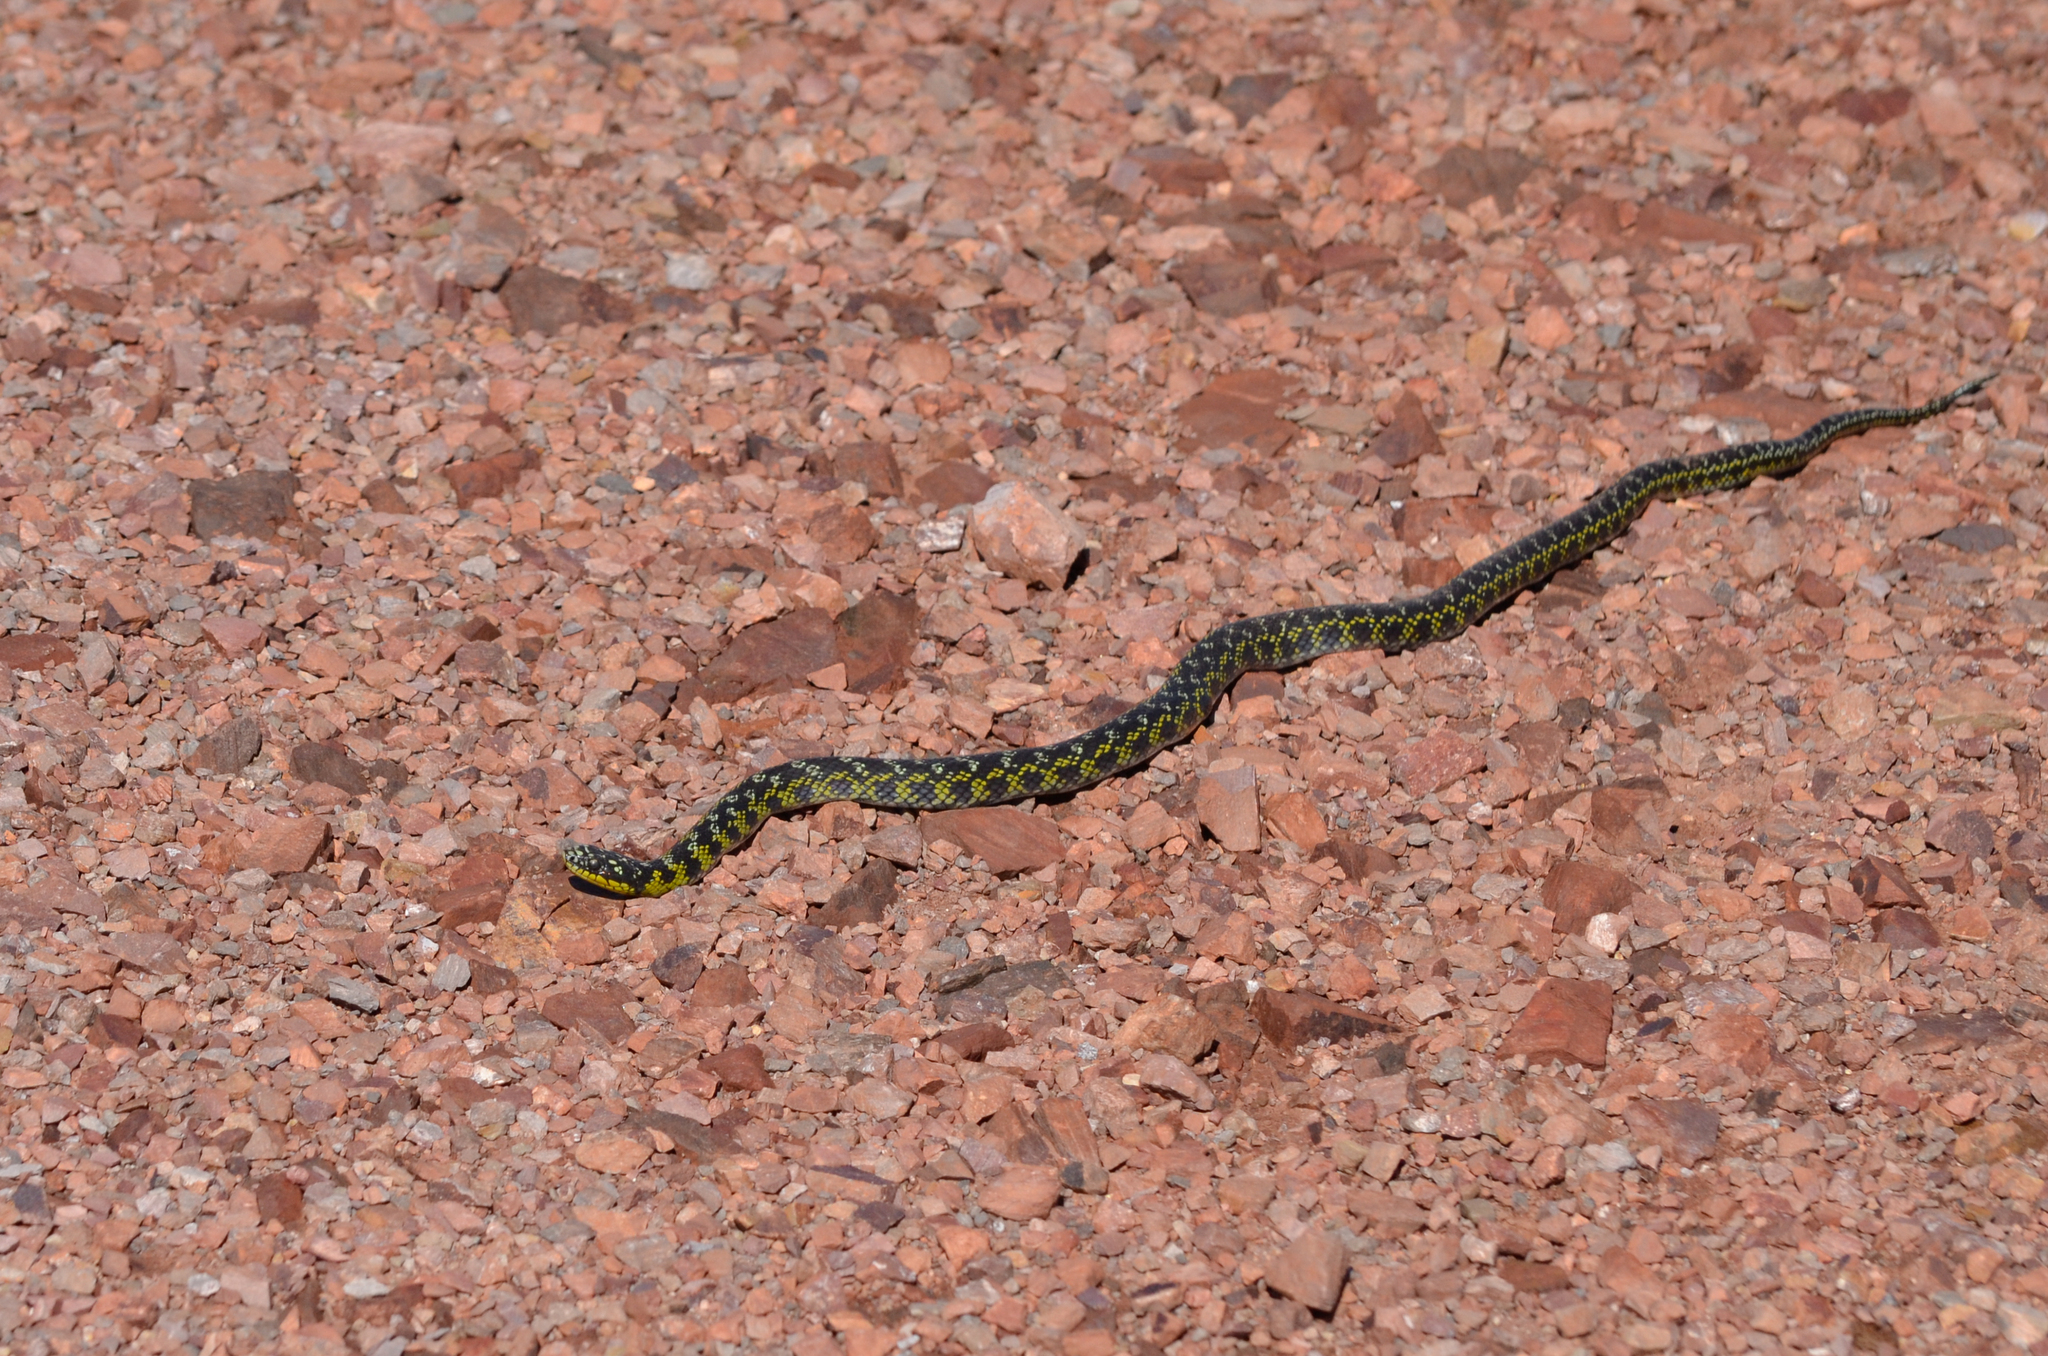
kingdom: Animalia
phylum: Chordata
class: Squamata
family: Colubridae
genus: Erythrolamprus
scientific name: Erythrolamprus poecilogyrus
